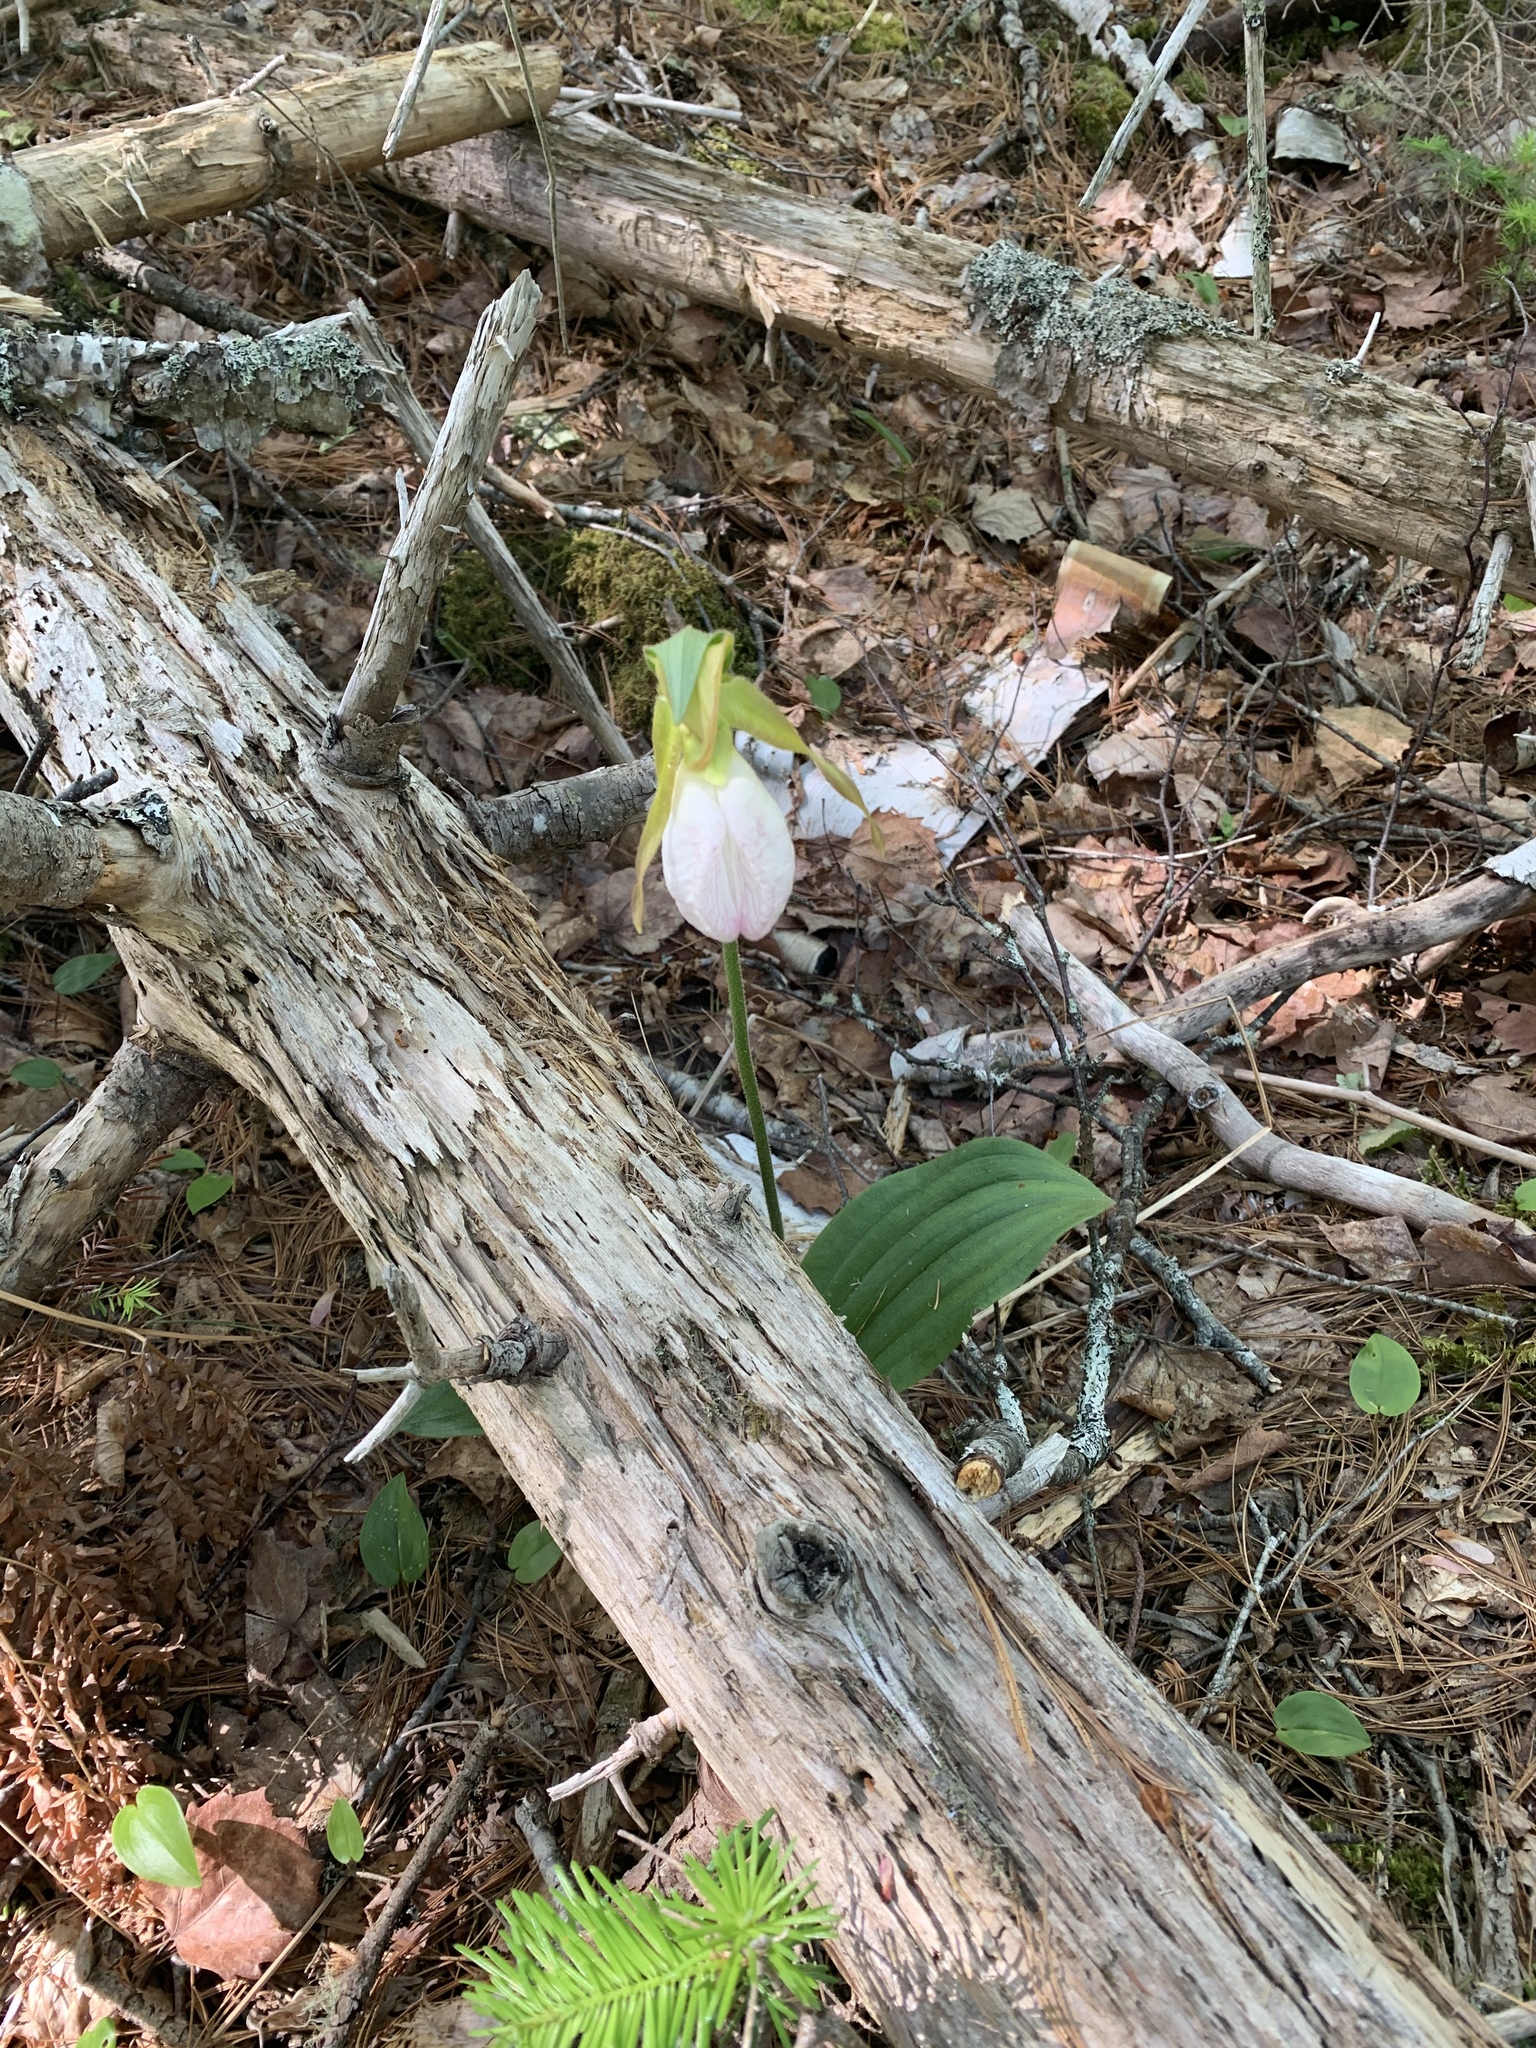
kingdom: Plantae
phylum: Tracheophyta
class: Liliopsida
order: Asparagales
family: Orchidaceae
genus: Cypripedium
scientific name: Cypripedium acaule
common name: Pink lady's-slipper
